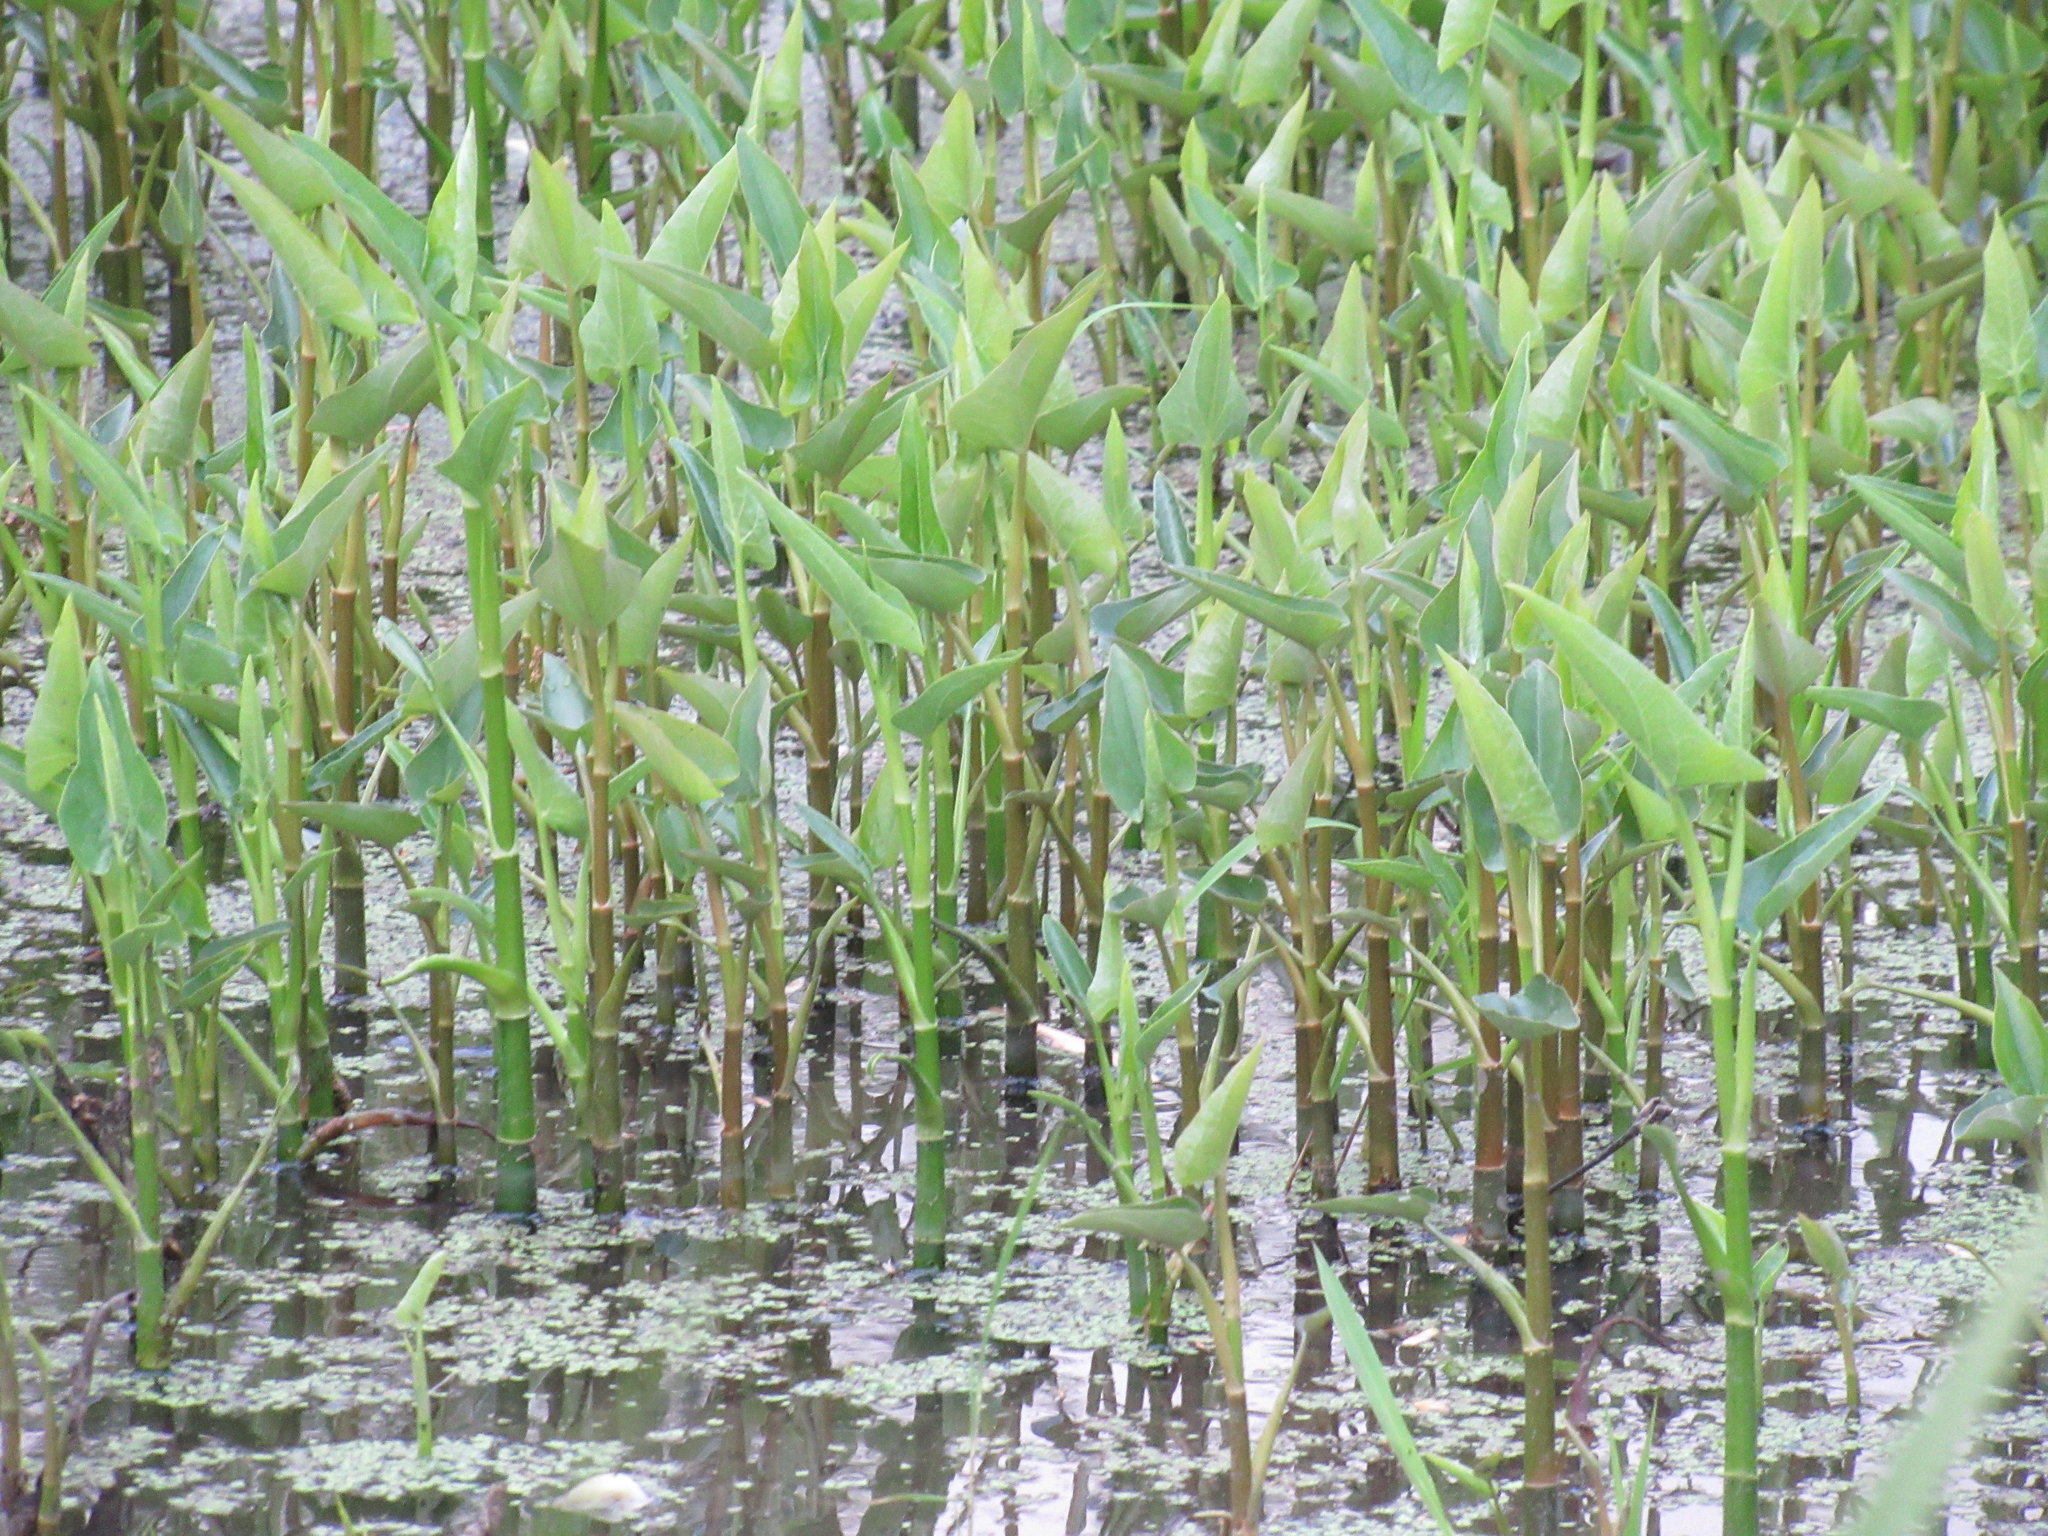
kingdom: Plantae
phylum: Tracheophyta
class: Liliopsida
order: Commelinales
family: Pontederiaceae
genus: Pontederia
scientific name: Pontederia cordata
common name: Pickerelweed
